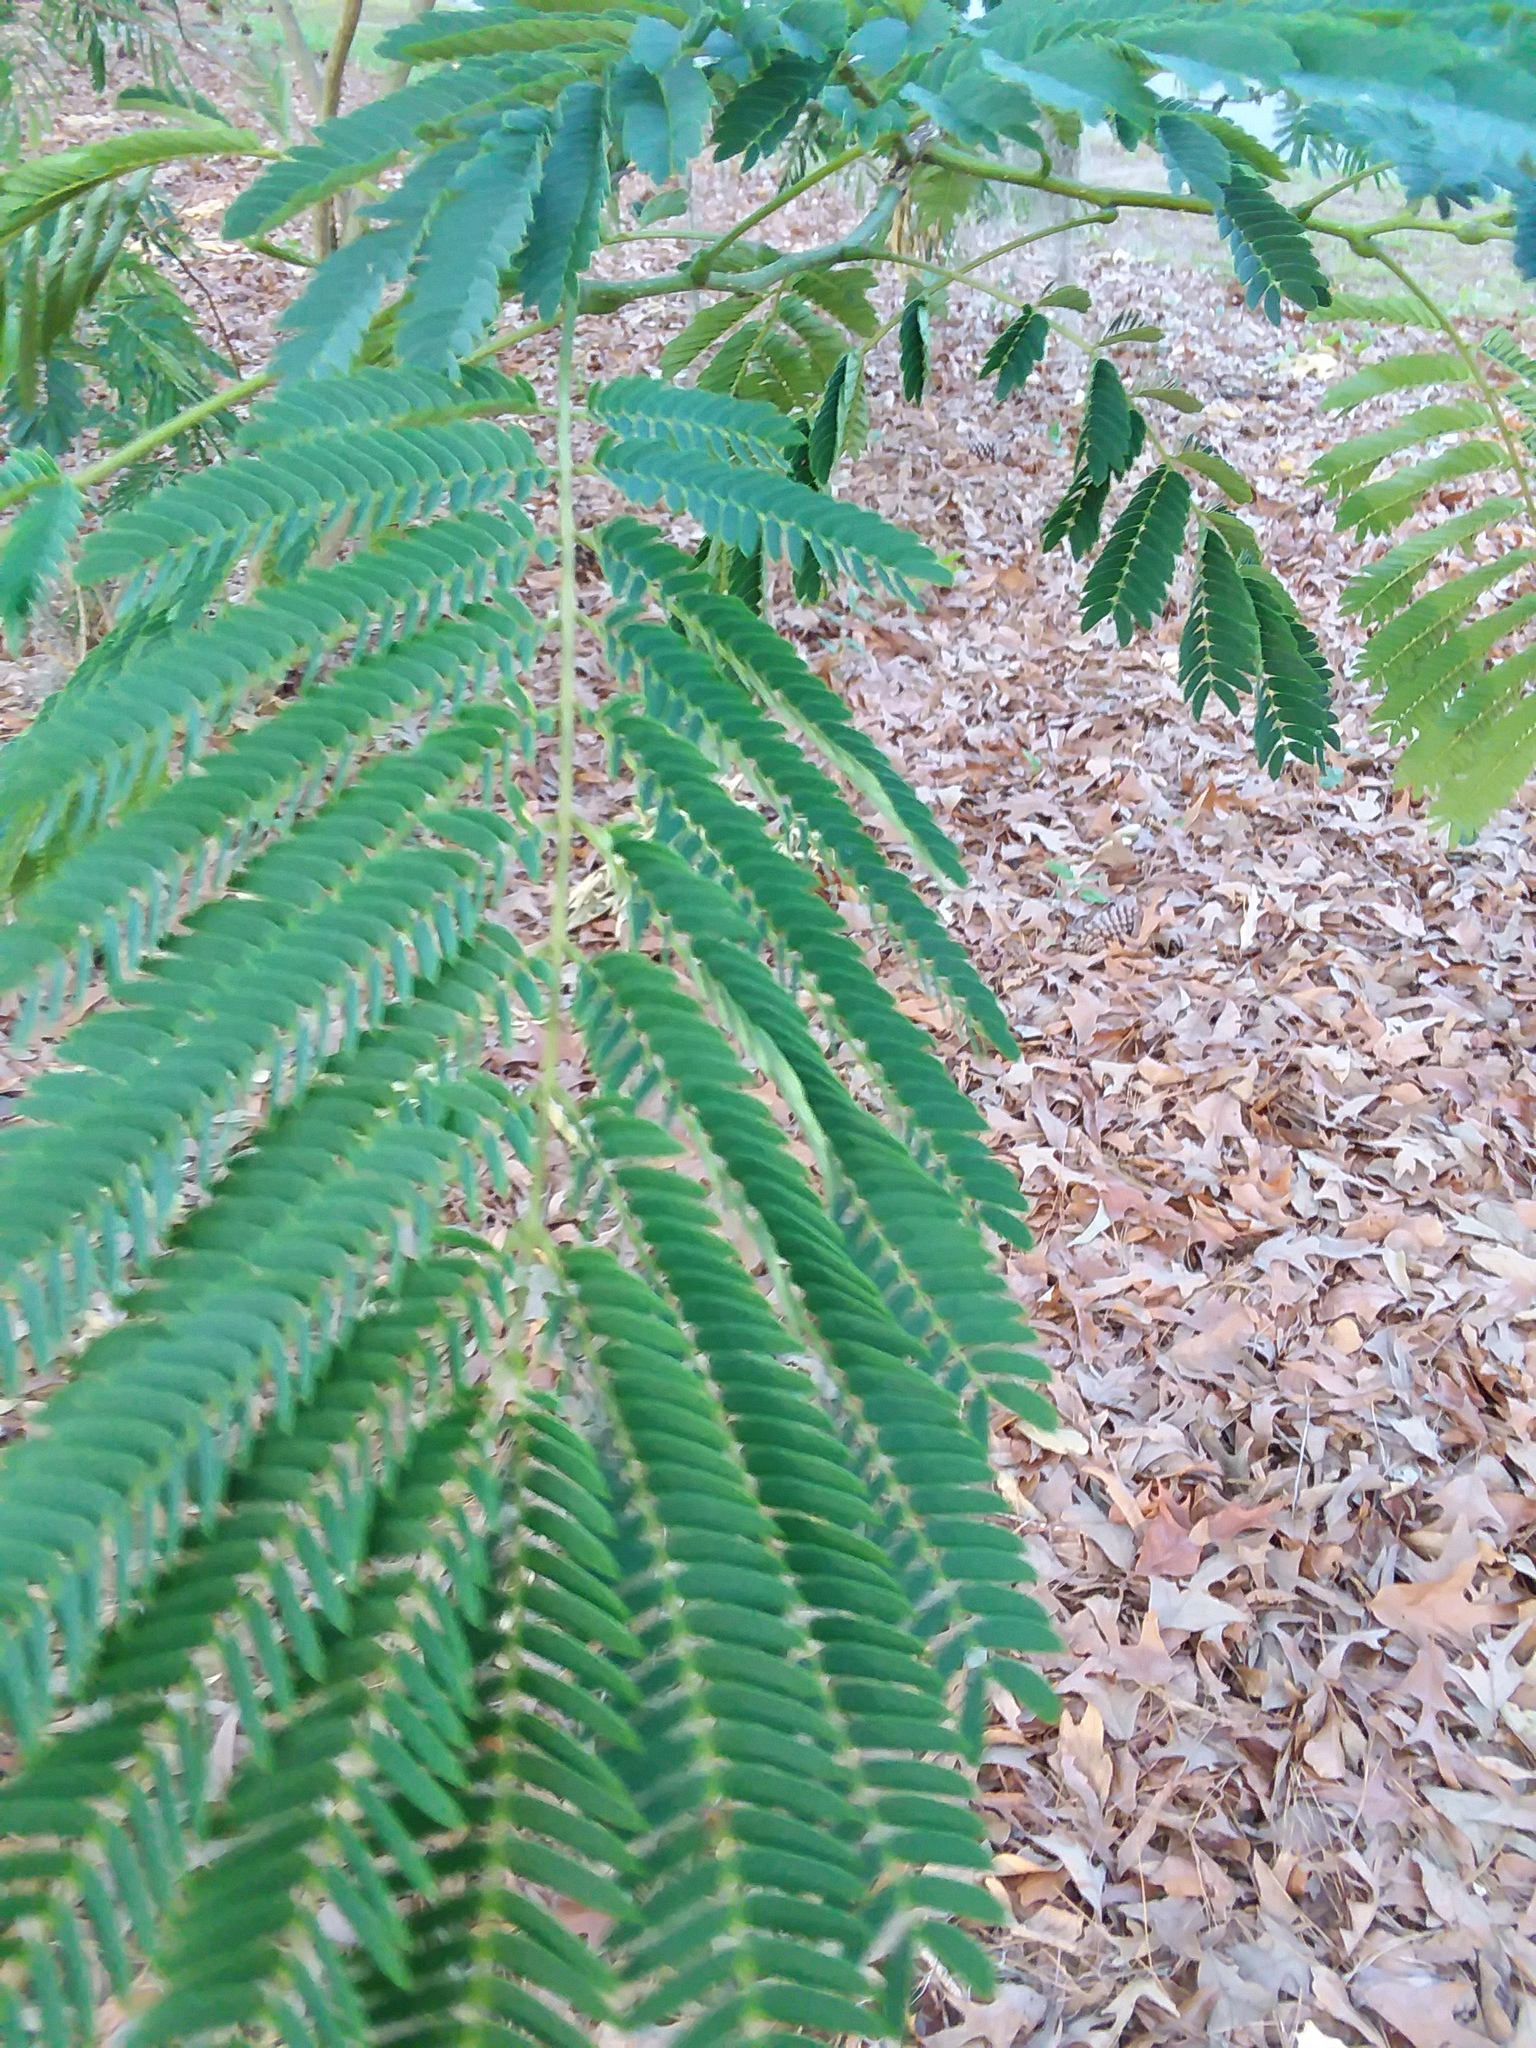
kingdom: Plantae
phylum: Tracheophyta
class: Magnoliopsida
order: Fabales
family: Fabaceae
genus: Albizia
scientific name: Albizia julibrissin
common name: Silktree
